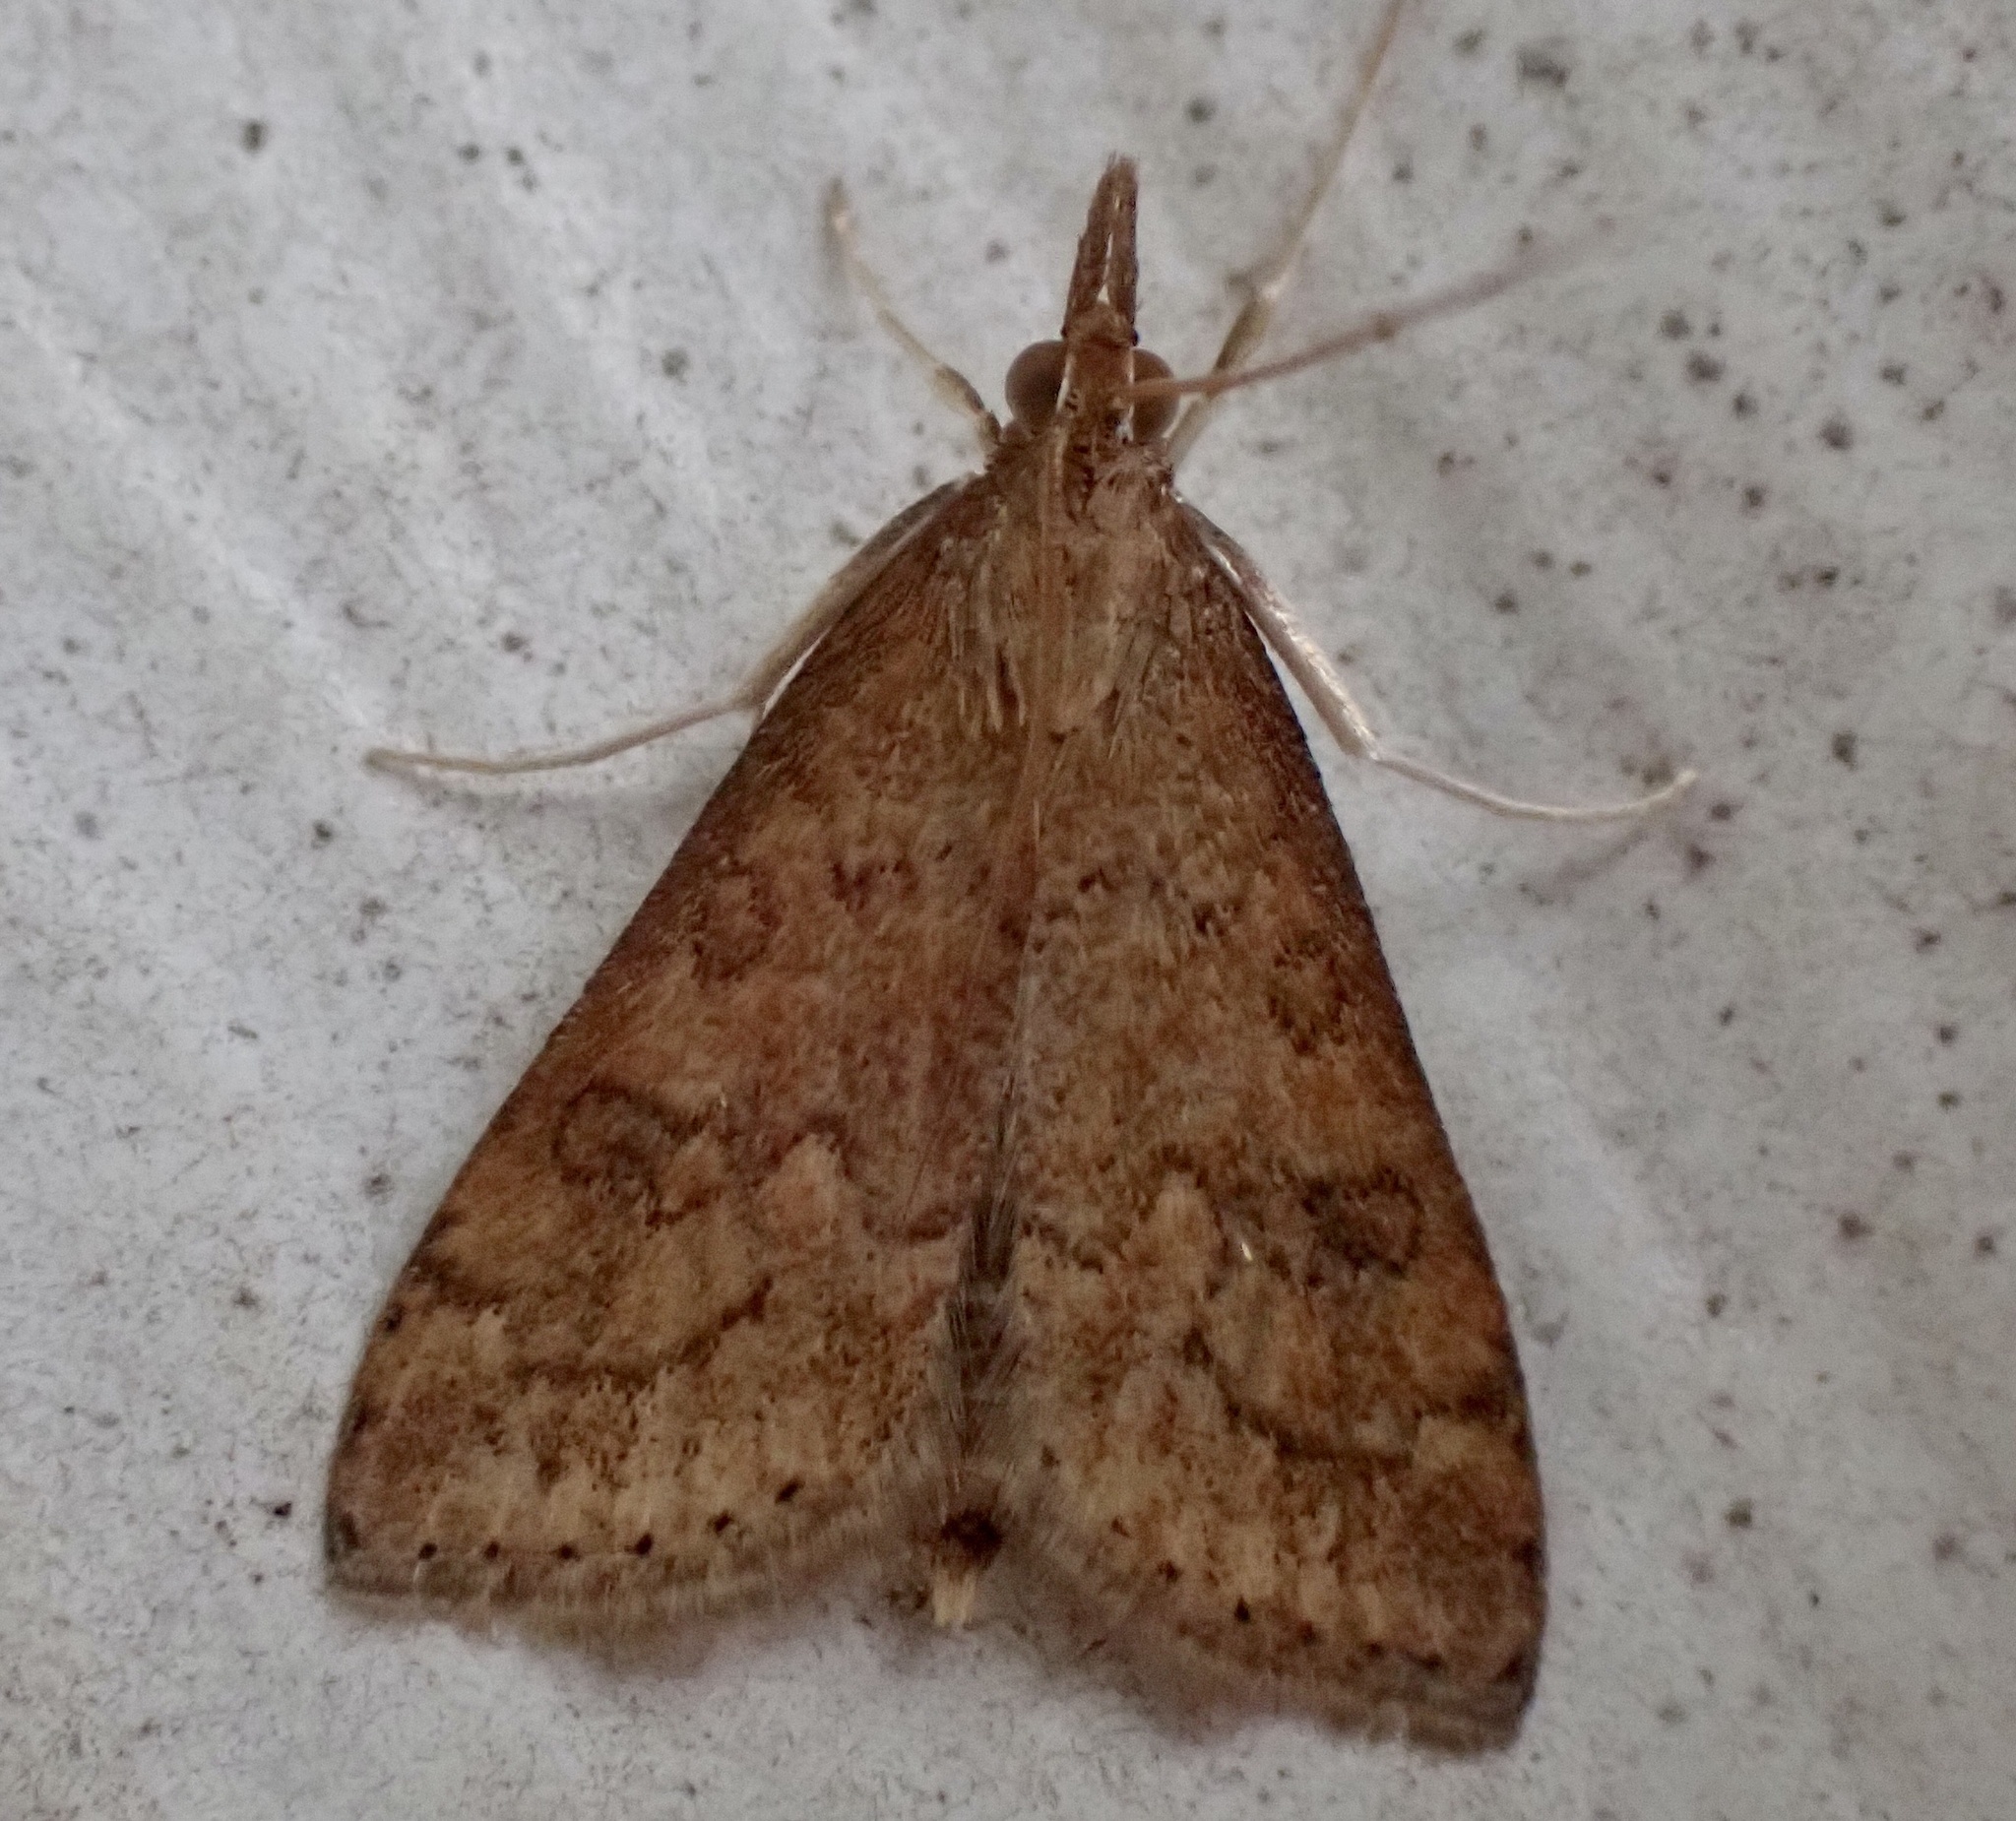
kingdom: Animalia
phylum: Arthropoda
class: Insecta
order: Lepidoptera
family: Crambidae
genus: Udea
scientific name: Udea rubigalis
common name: Celery leaftier moth
